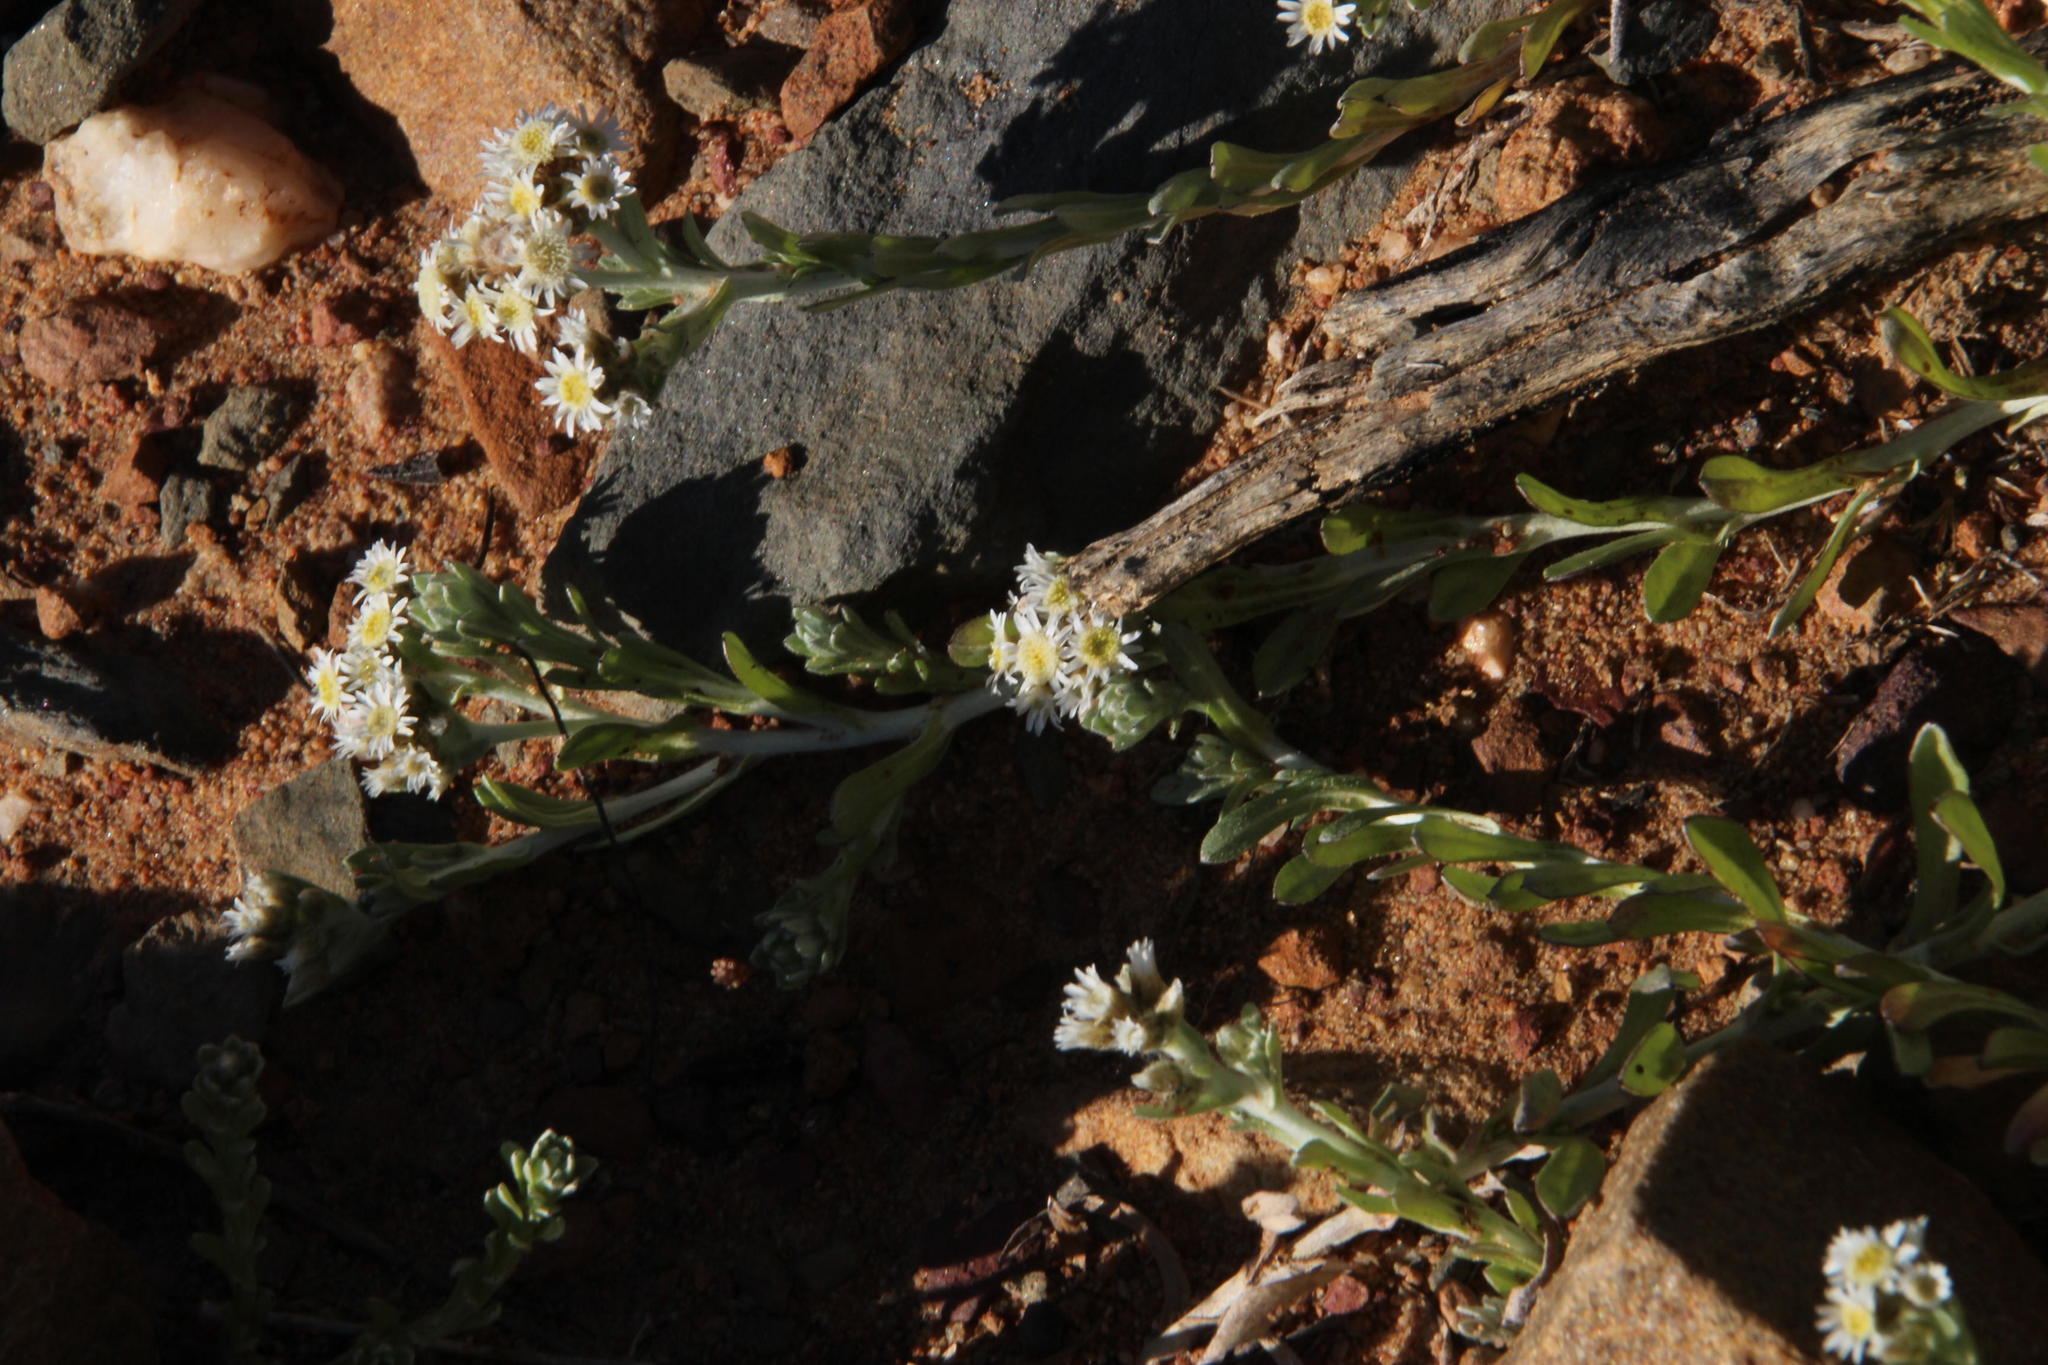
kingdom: Plantae
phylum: Tracheophyta
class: Magnoliopsida
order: Asterales
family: Asteraceae
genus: Gnaphalium
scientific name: Gnaphalium declinatum
